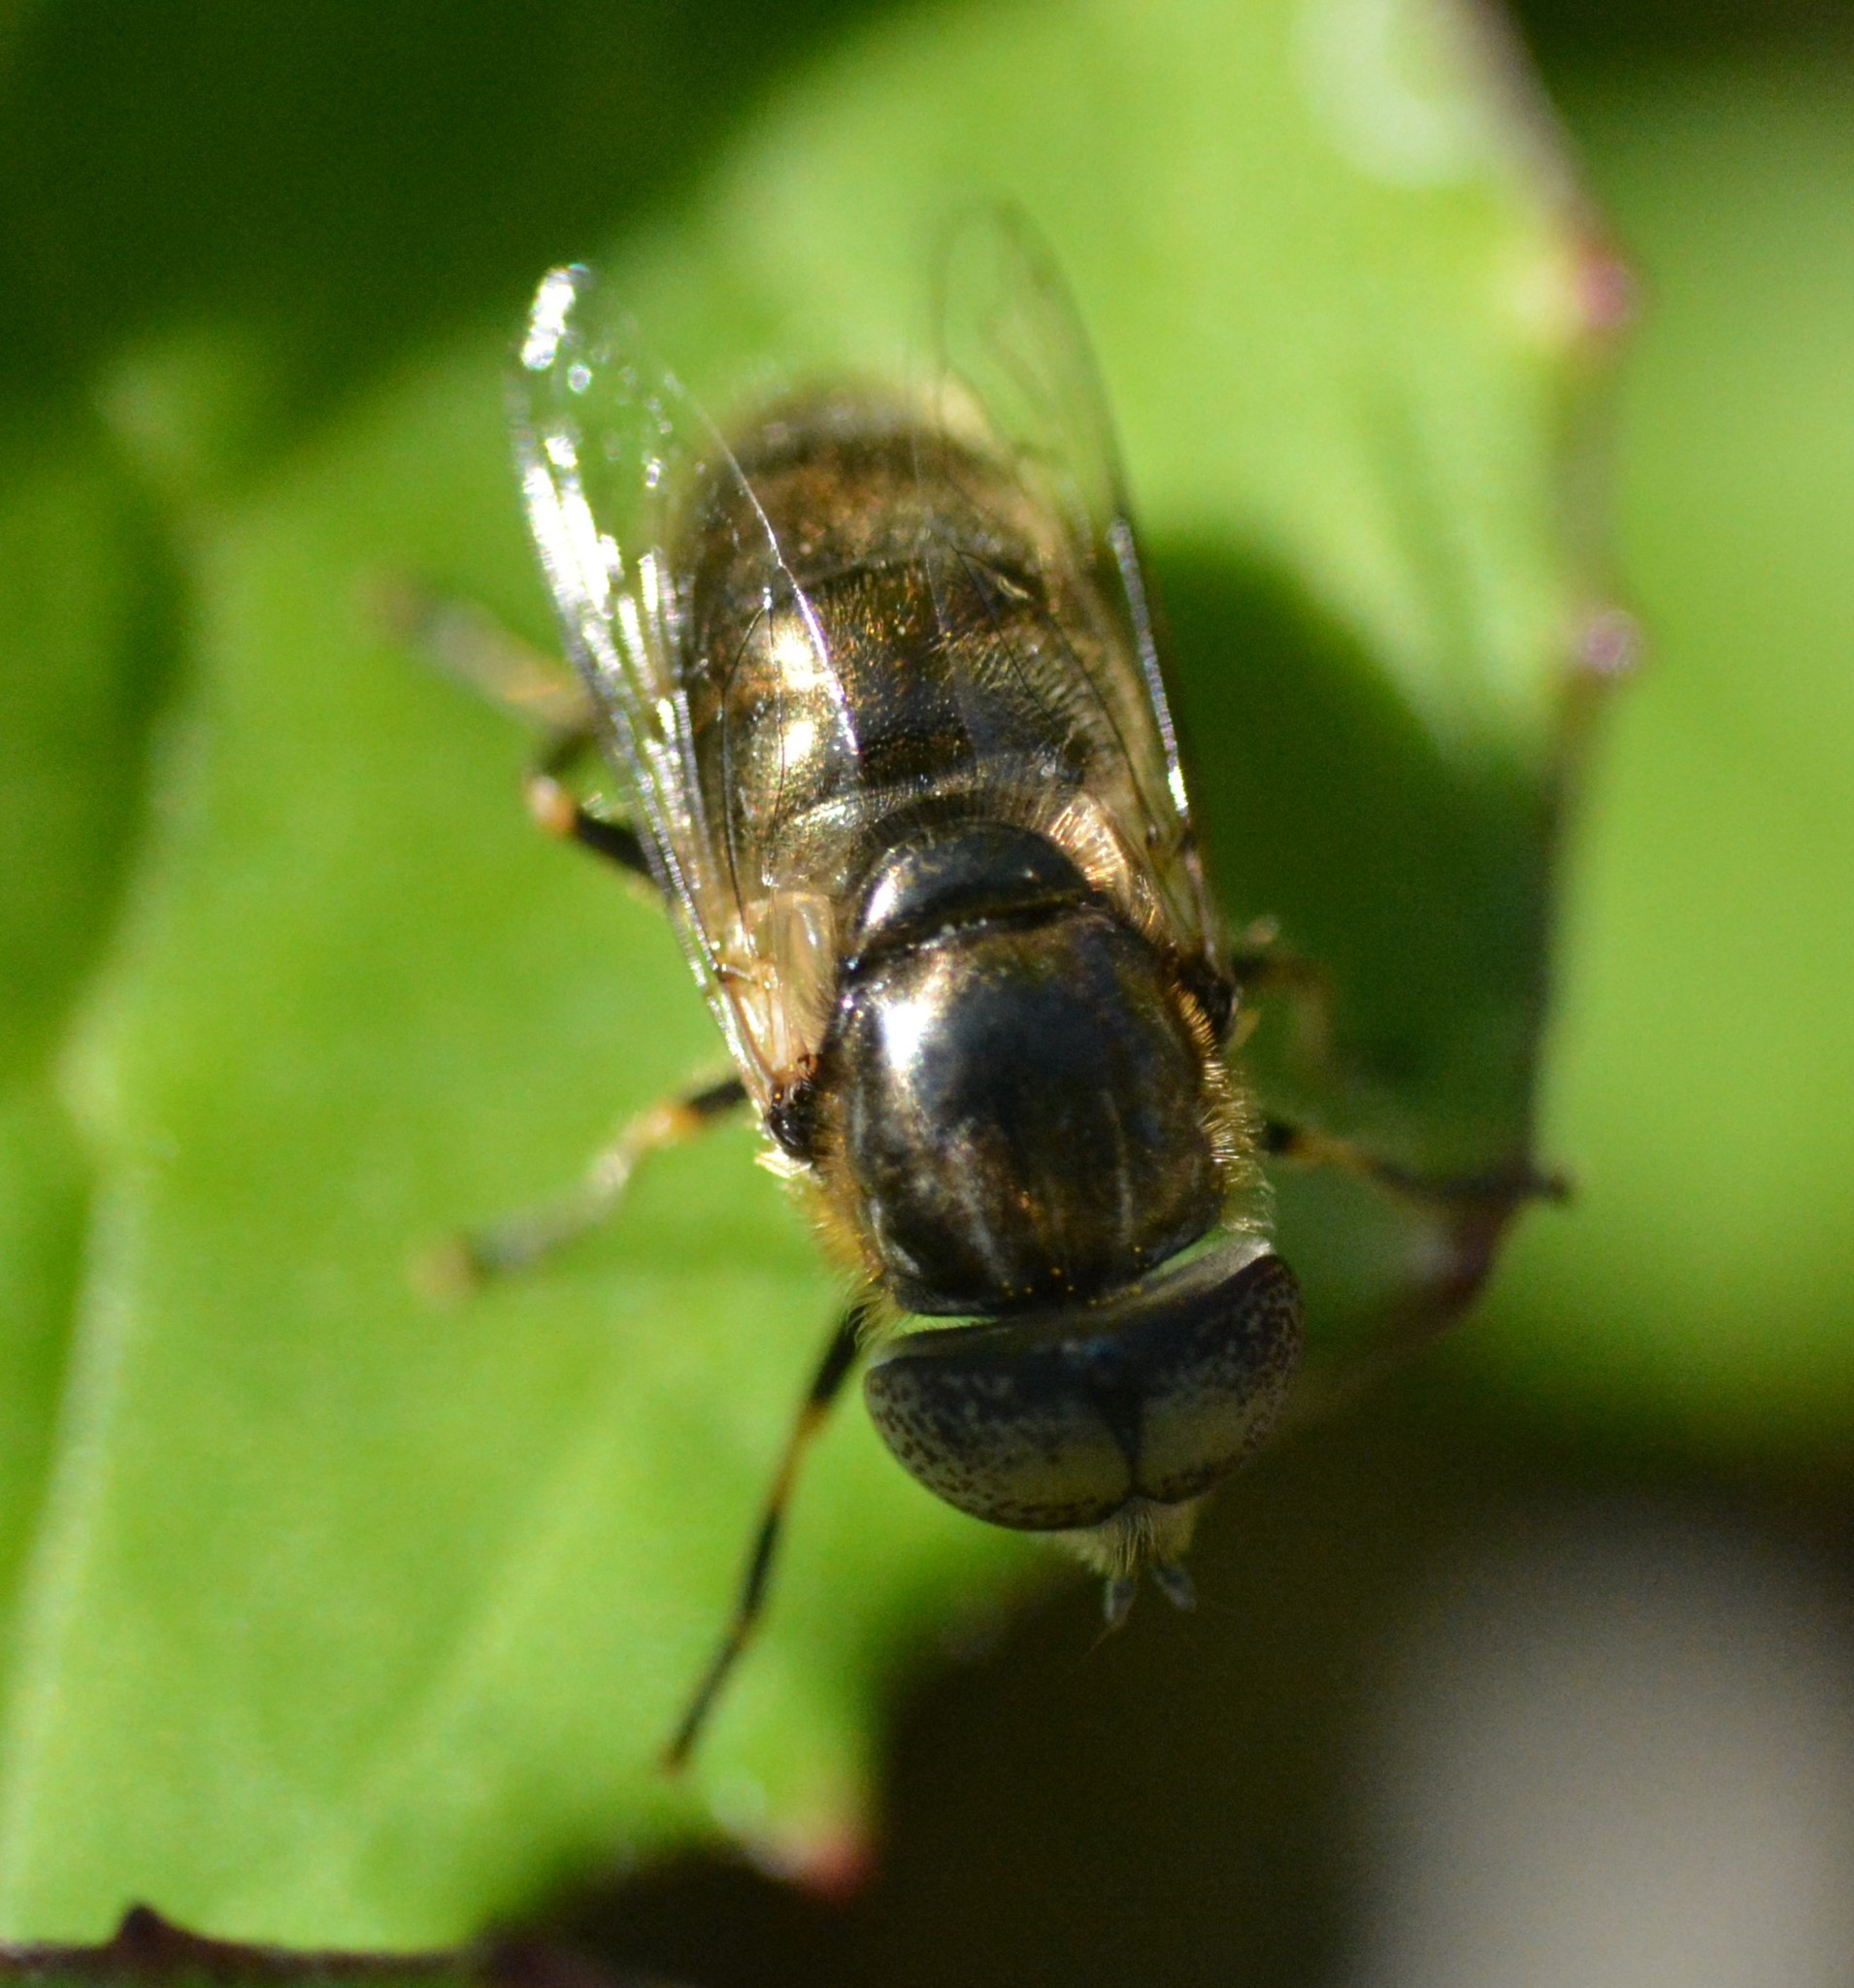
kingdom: Animalia
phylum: Arthropoda
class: Insecta
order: Diptera
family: Syrphidae
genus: Eristalinus
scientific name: Eristalinus aeneus
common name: Syrphid fly
